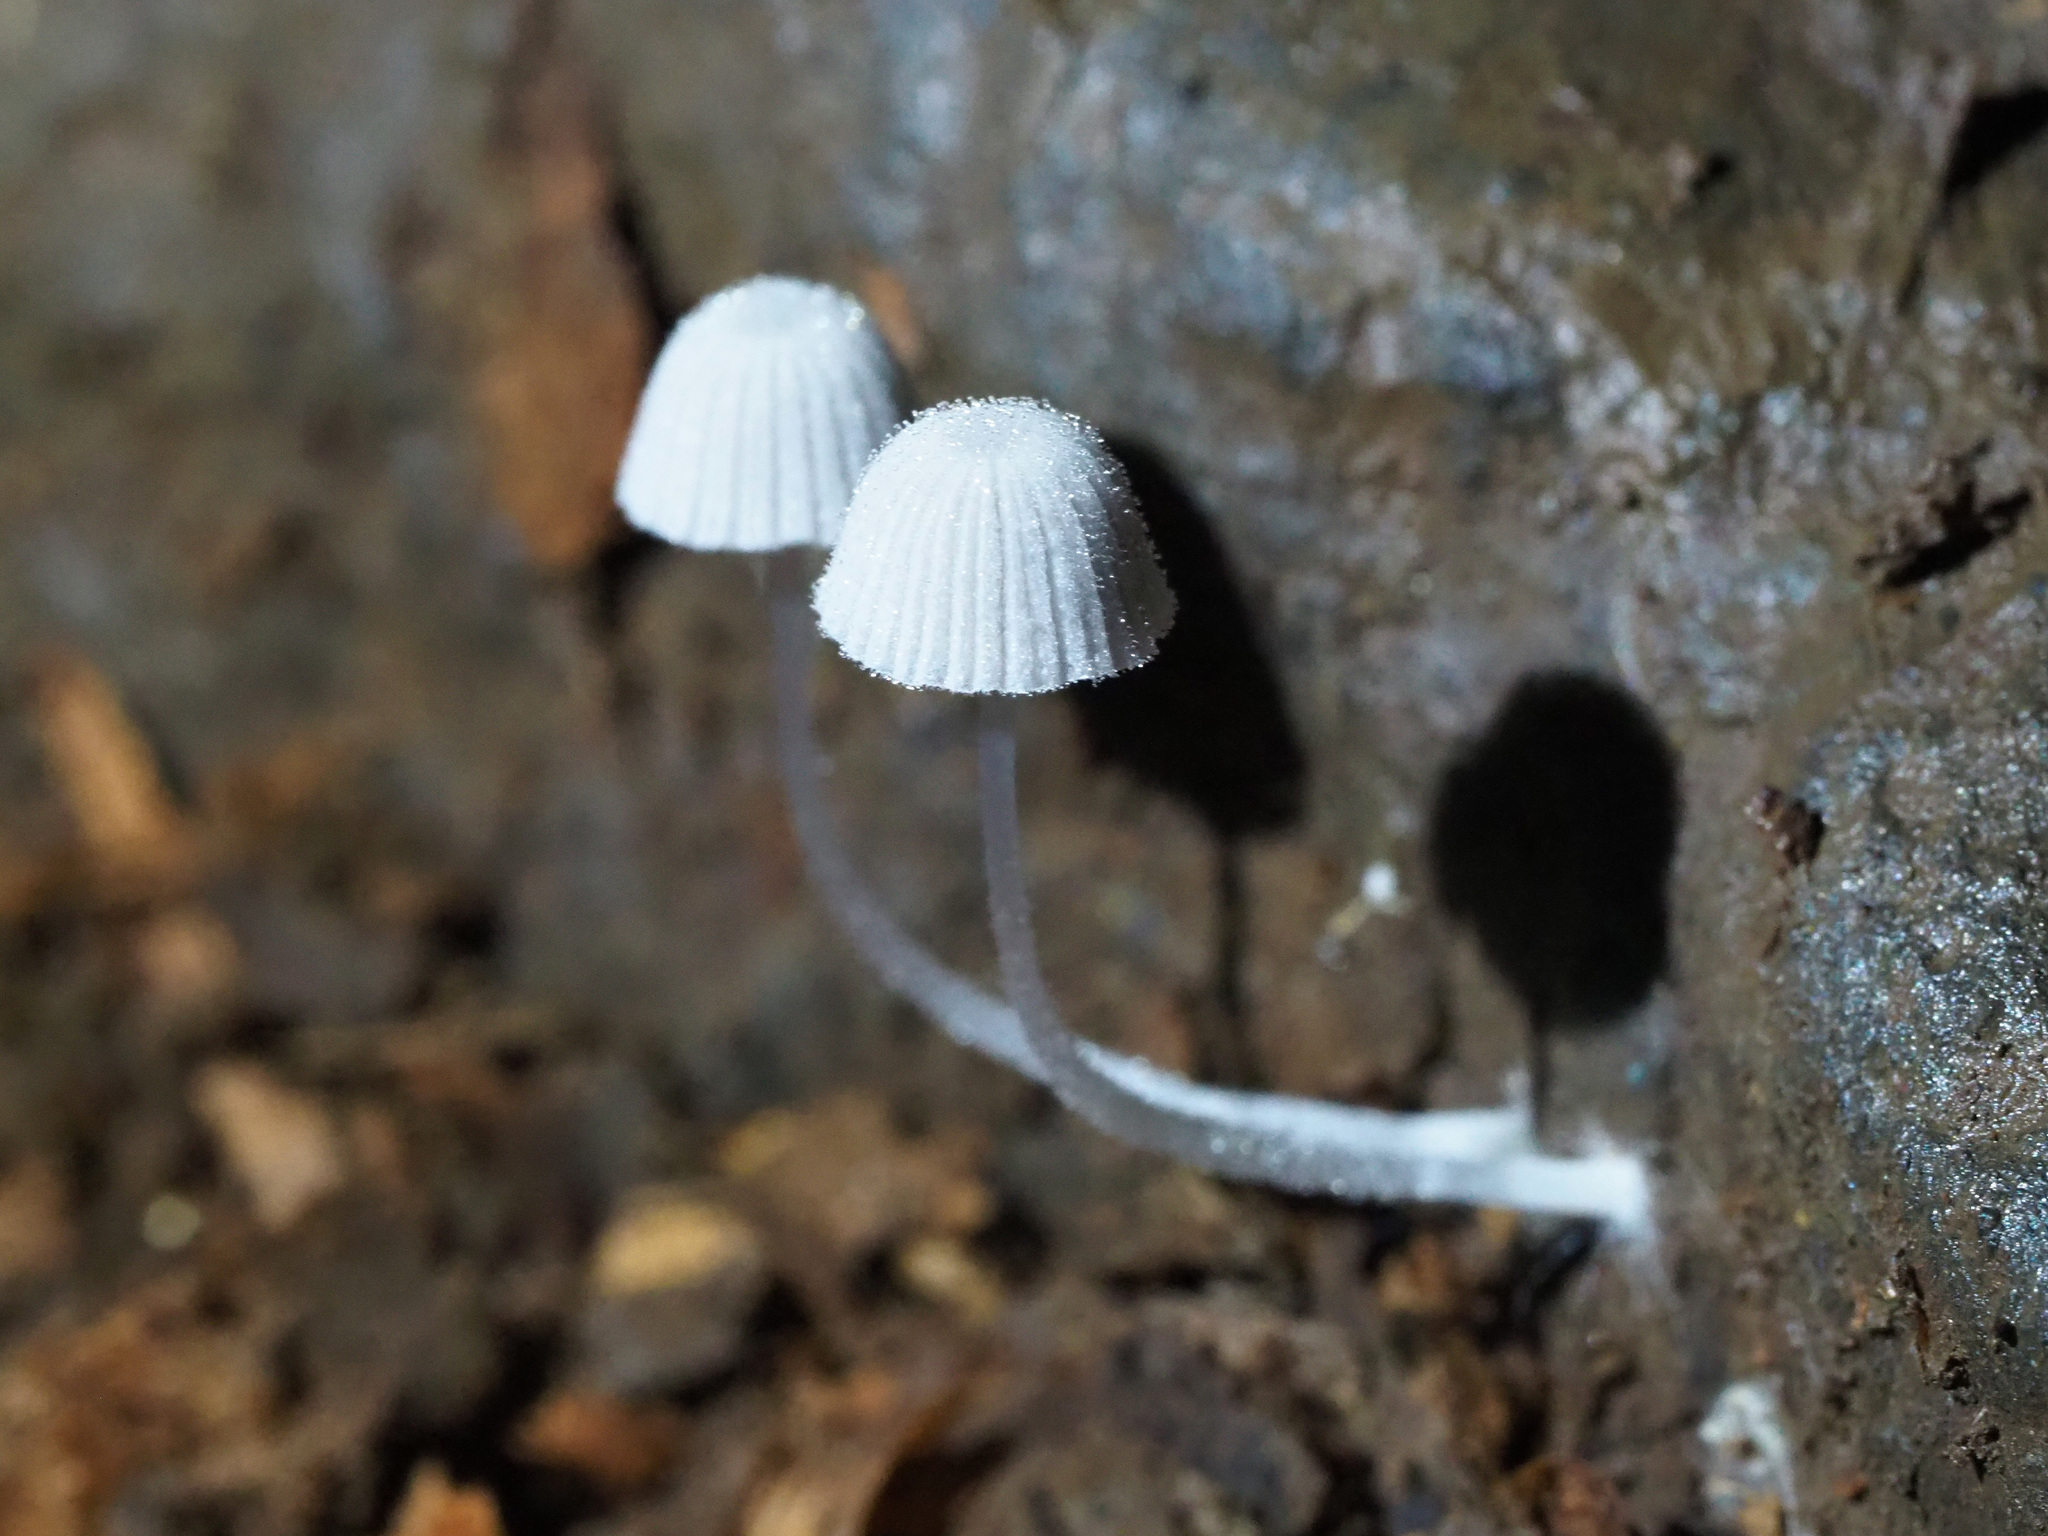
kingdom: Fungi
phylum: Basidiomycota
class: Agaricomycetes
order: Agaricales
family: Psathyrellaceae
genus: Coprinellus
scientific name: Coprinellus disseminatus
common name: Fairies' bonnets
